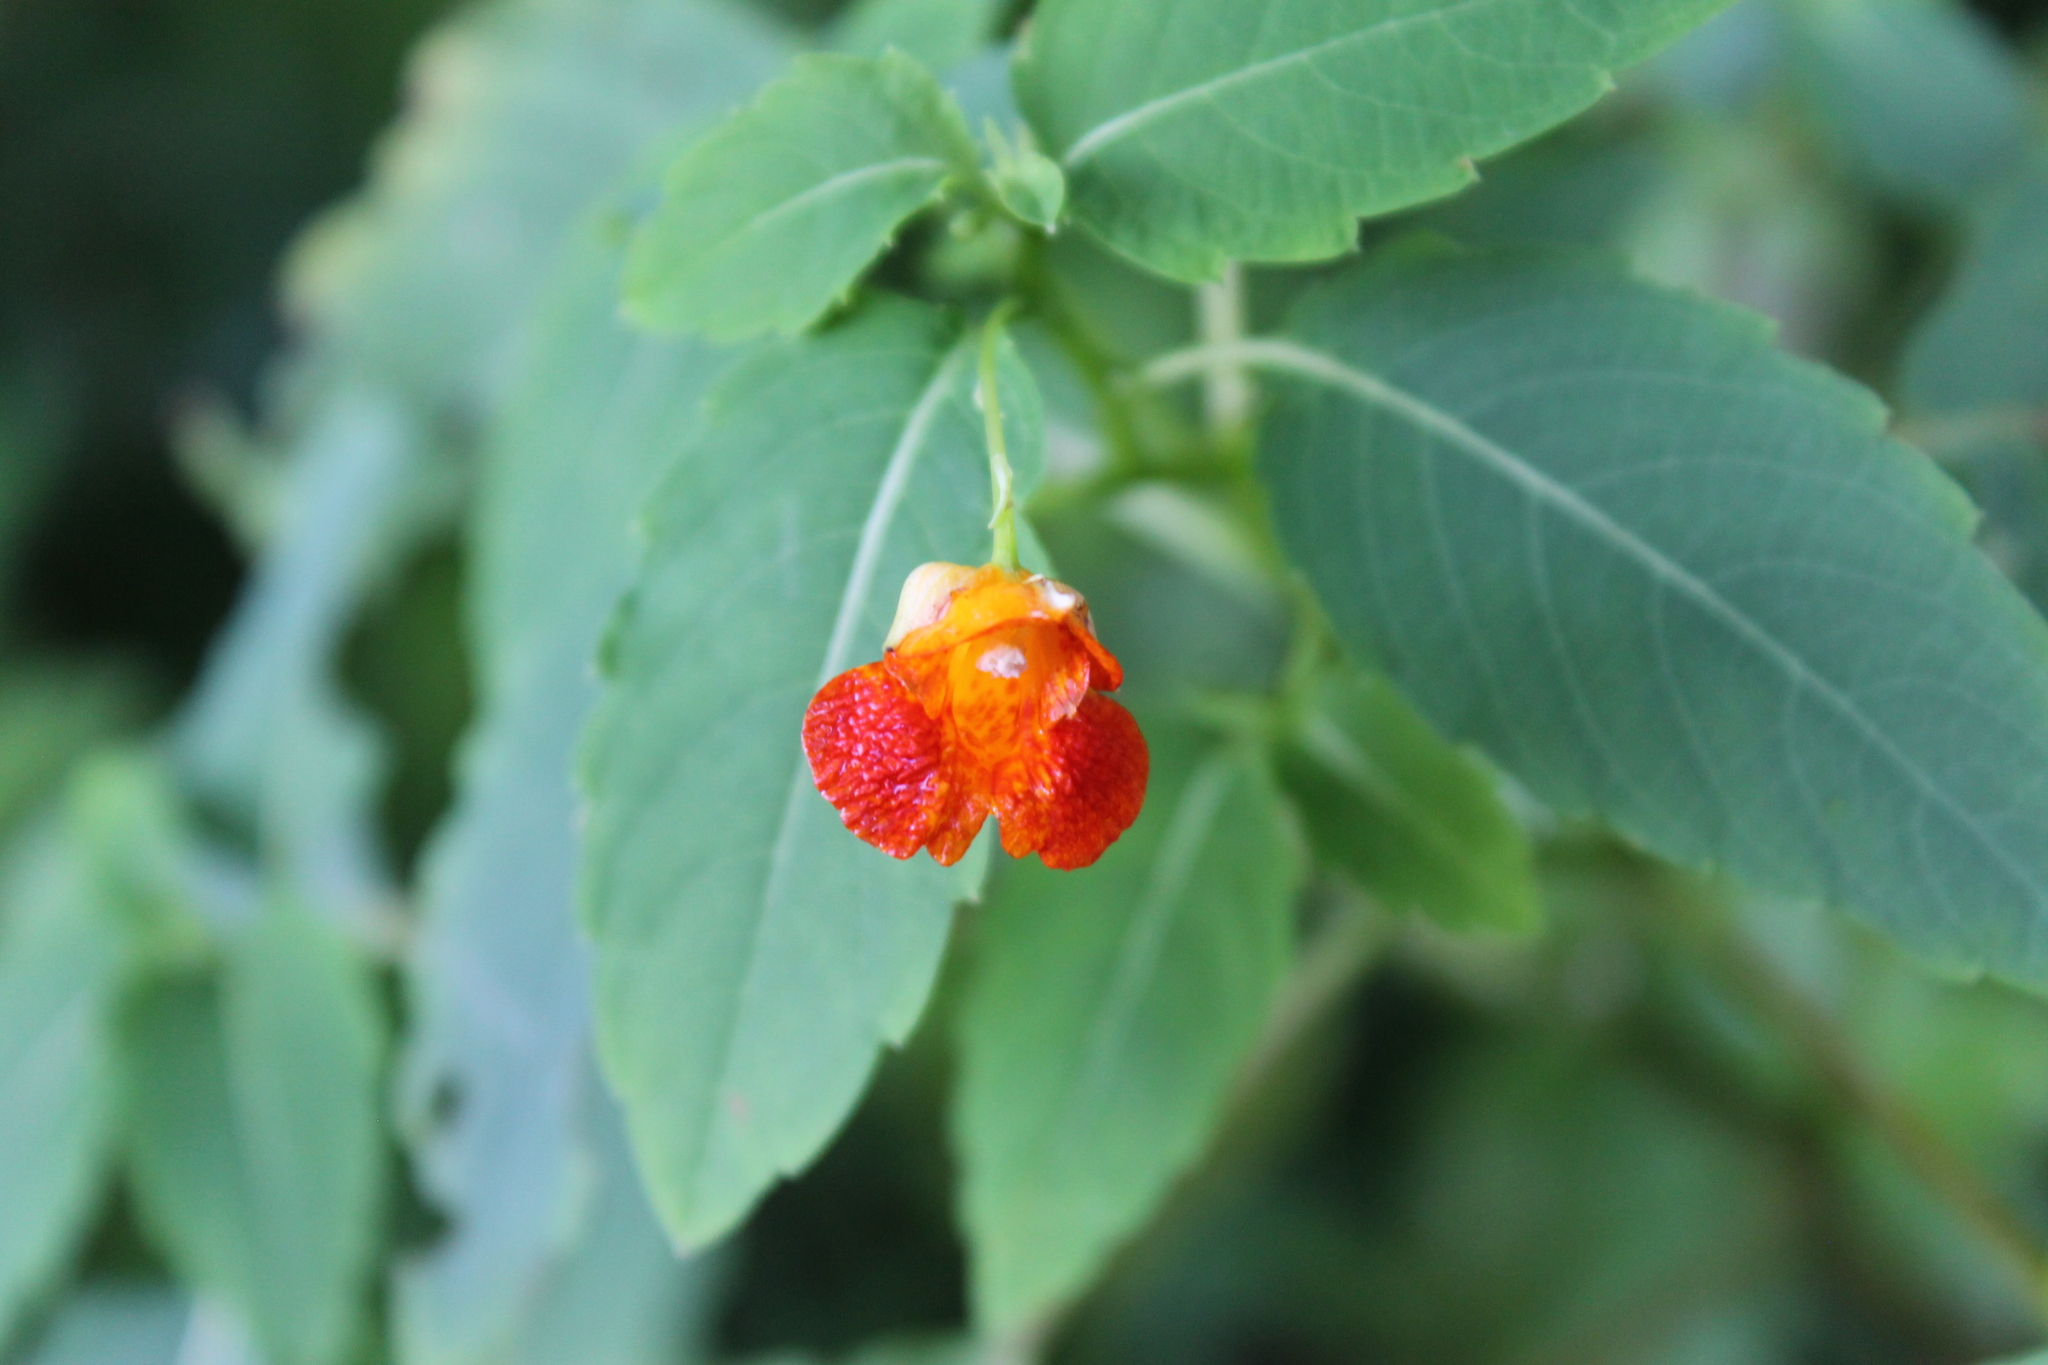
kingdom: Plantae
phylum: Tracheophyta
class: Magnoliopsida
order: Ericales
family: Balsaminaceae
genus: Impatiens
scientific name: Impatiens capensis
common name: Orange balsam
